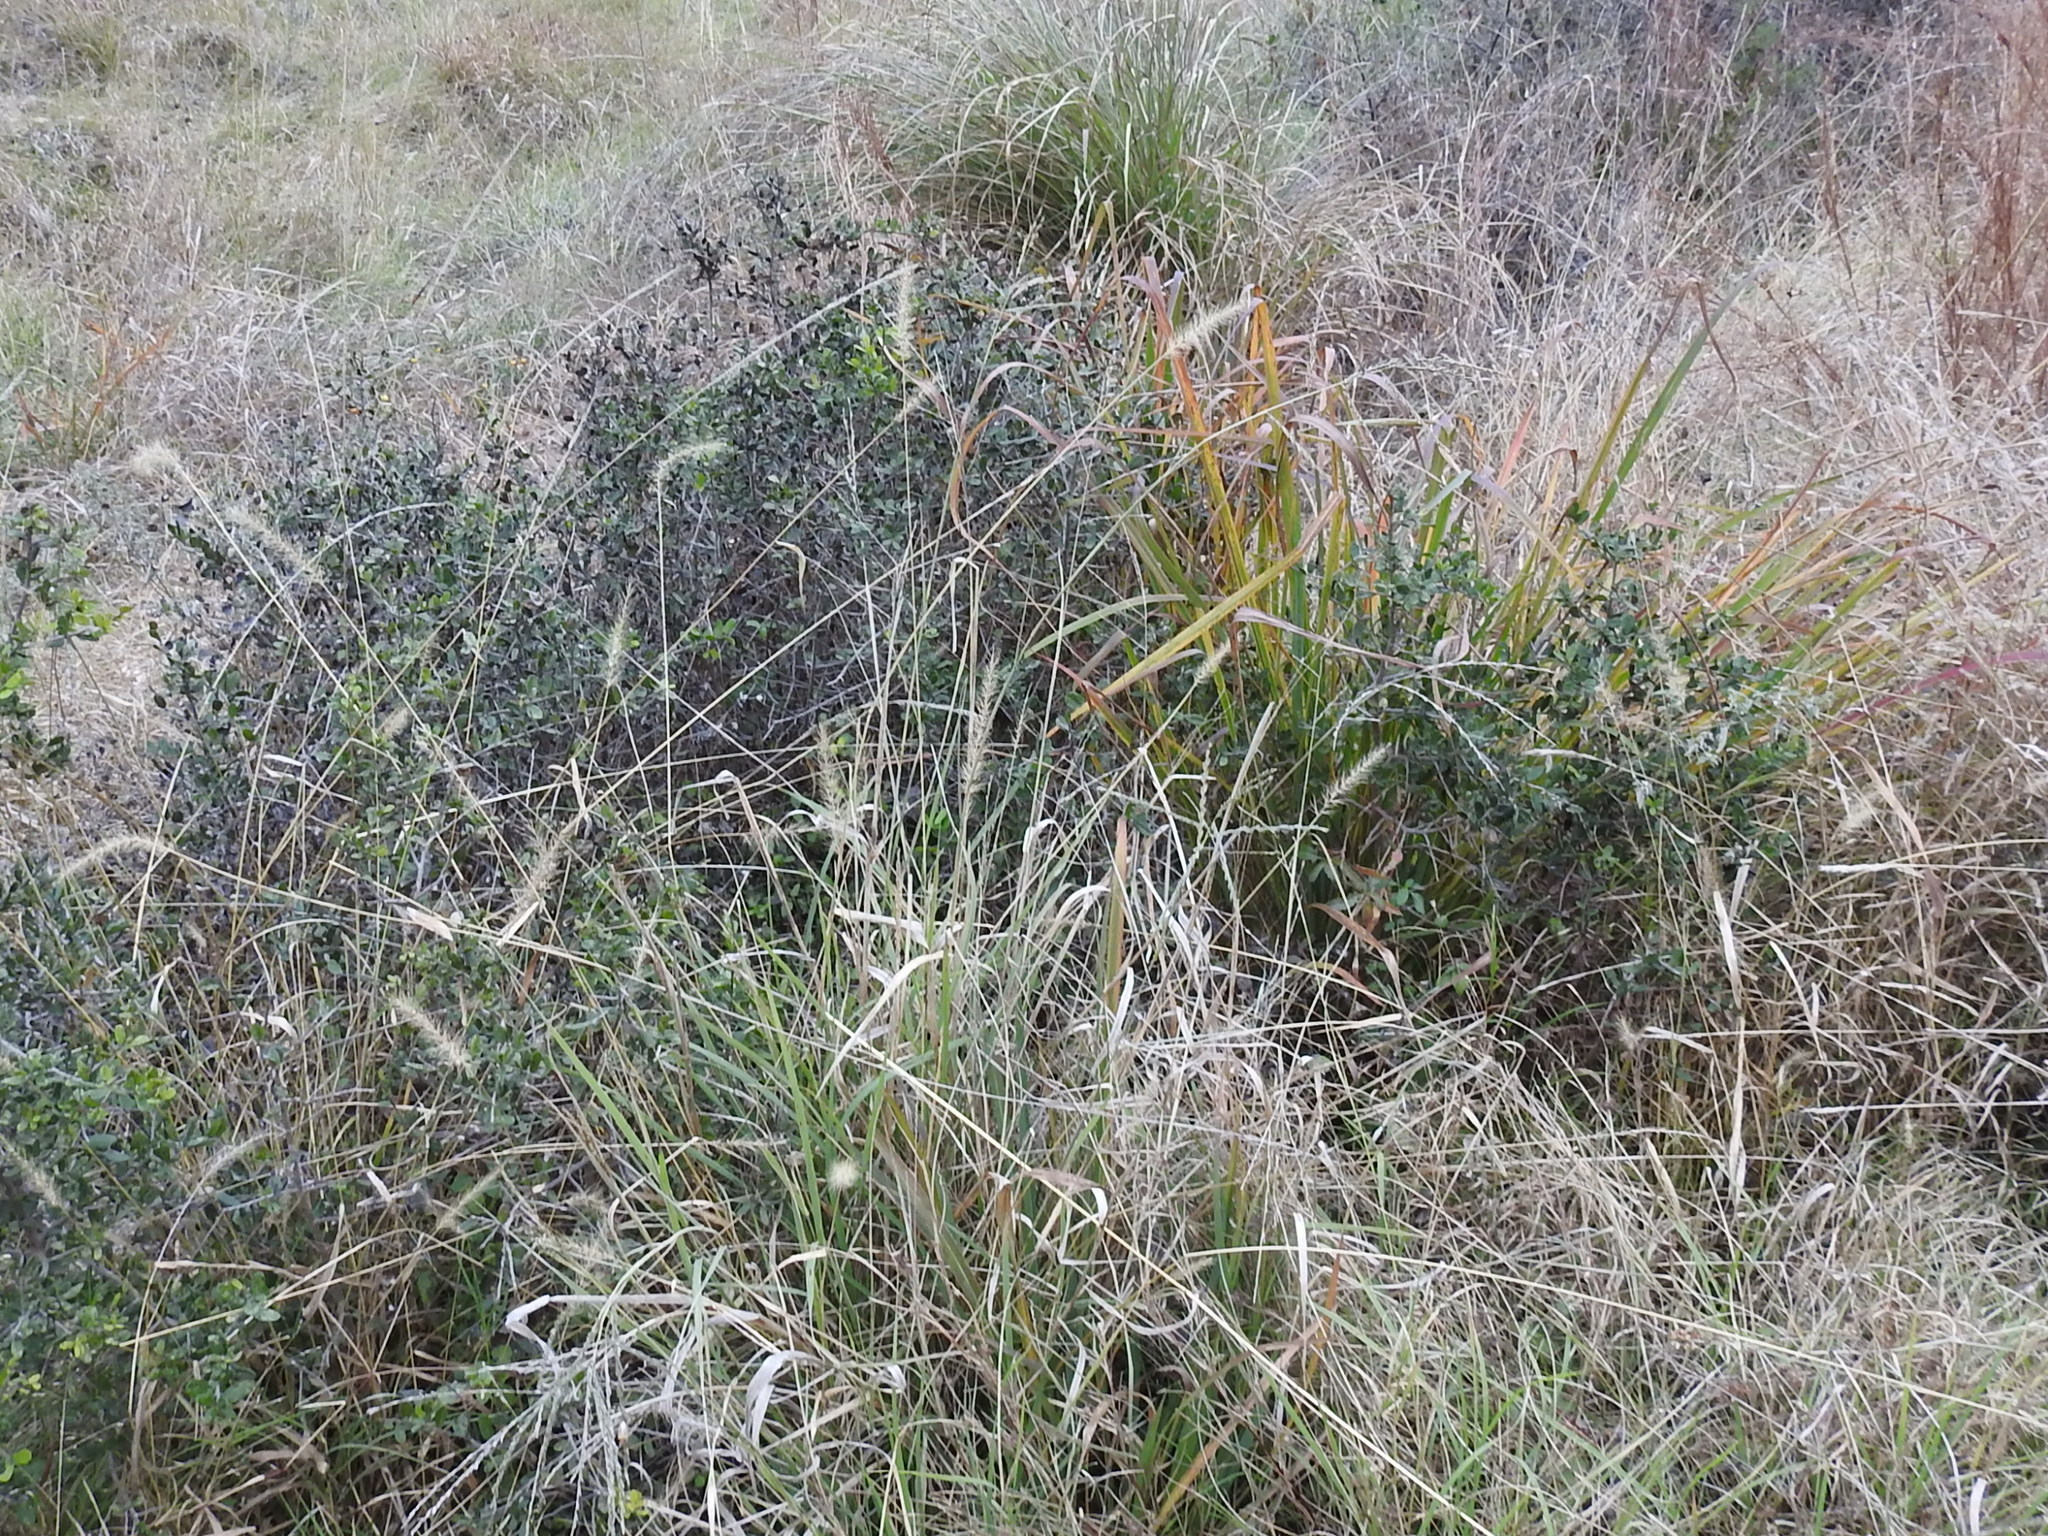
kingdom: Plantae
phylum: Tracheophyta
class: Liliopsida
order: Poales
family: Poaceae
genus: Disakisperma
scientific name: Disakisperma dubium
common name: Green sprangletop
